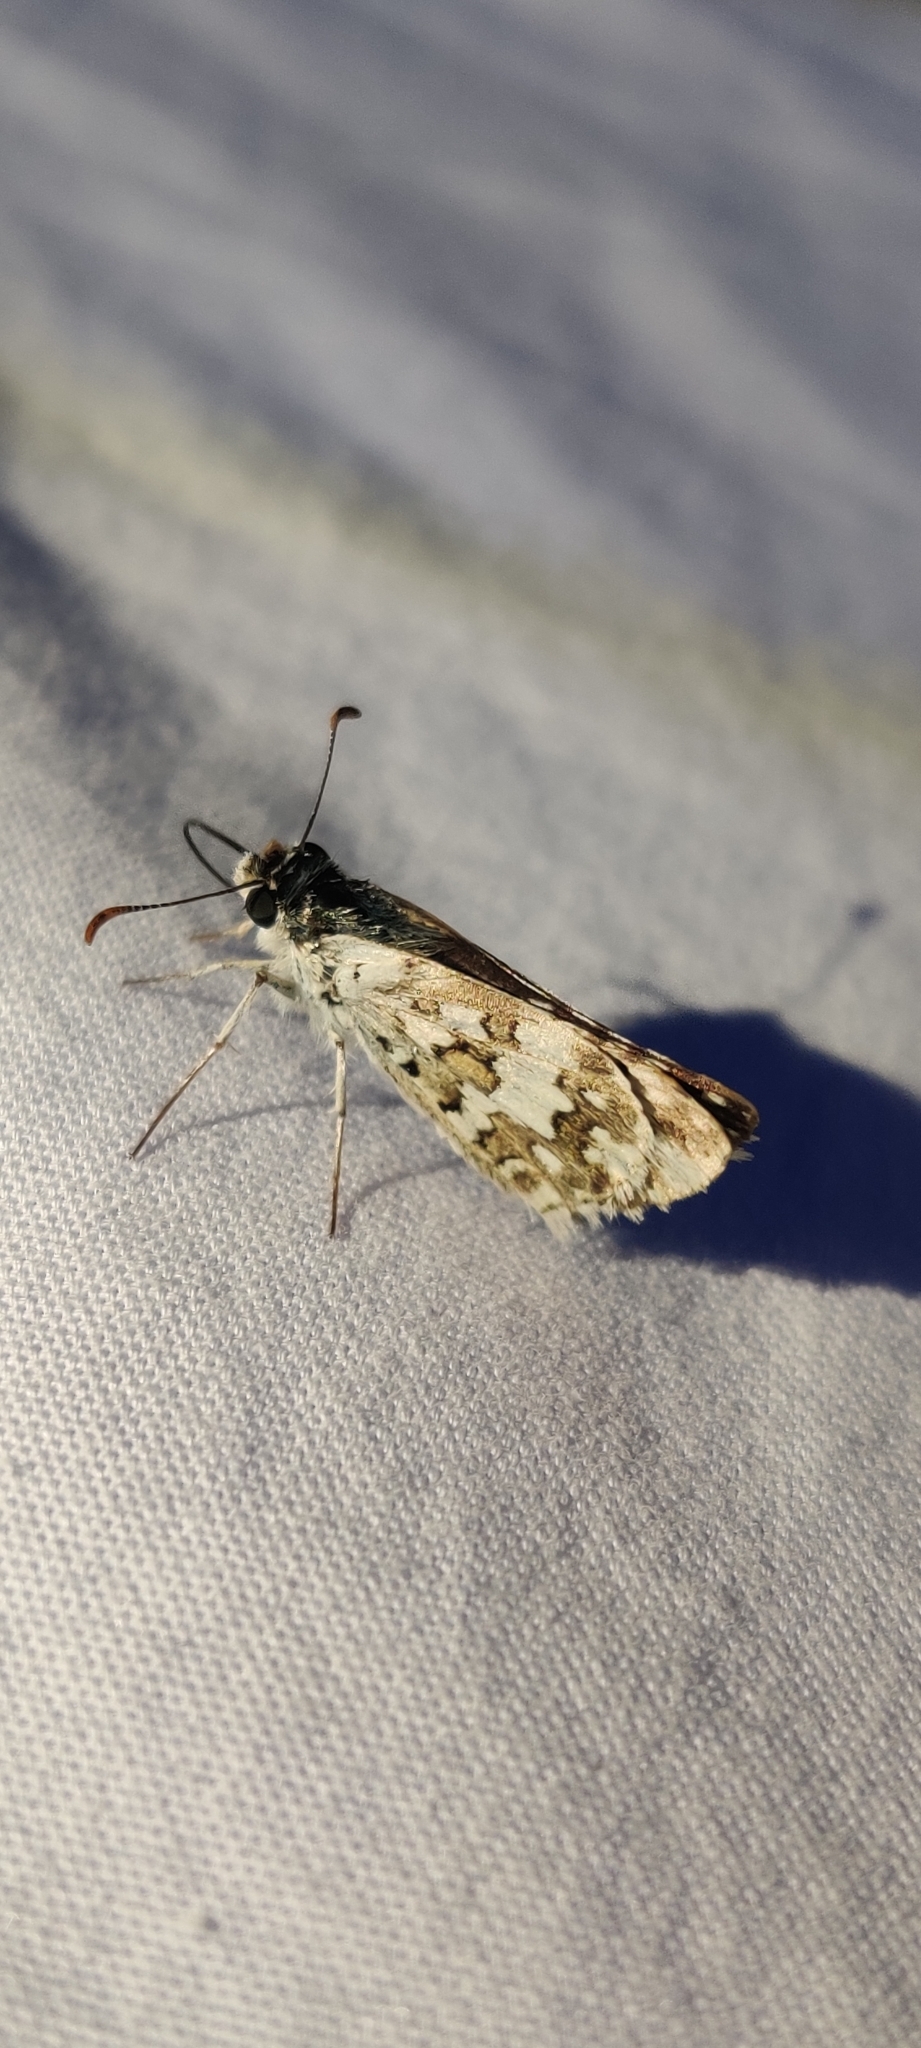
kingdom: Animalia
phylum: Arthropoda
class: Insecta
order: Lepidoptera
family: Hesperiidae
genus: Burnsius
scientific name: Burnsius communis
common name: Common checkered-skipper
